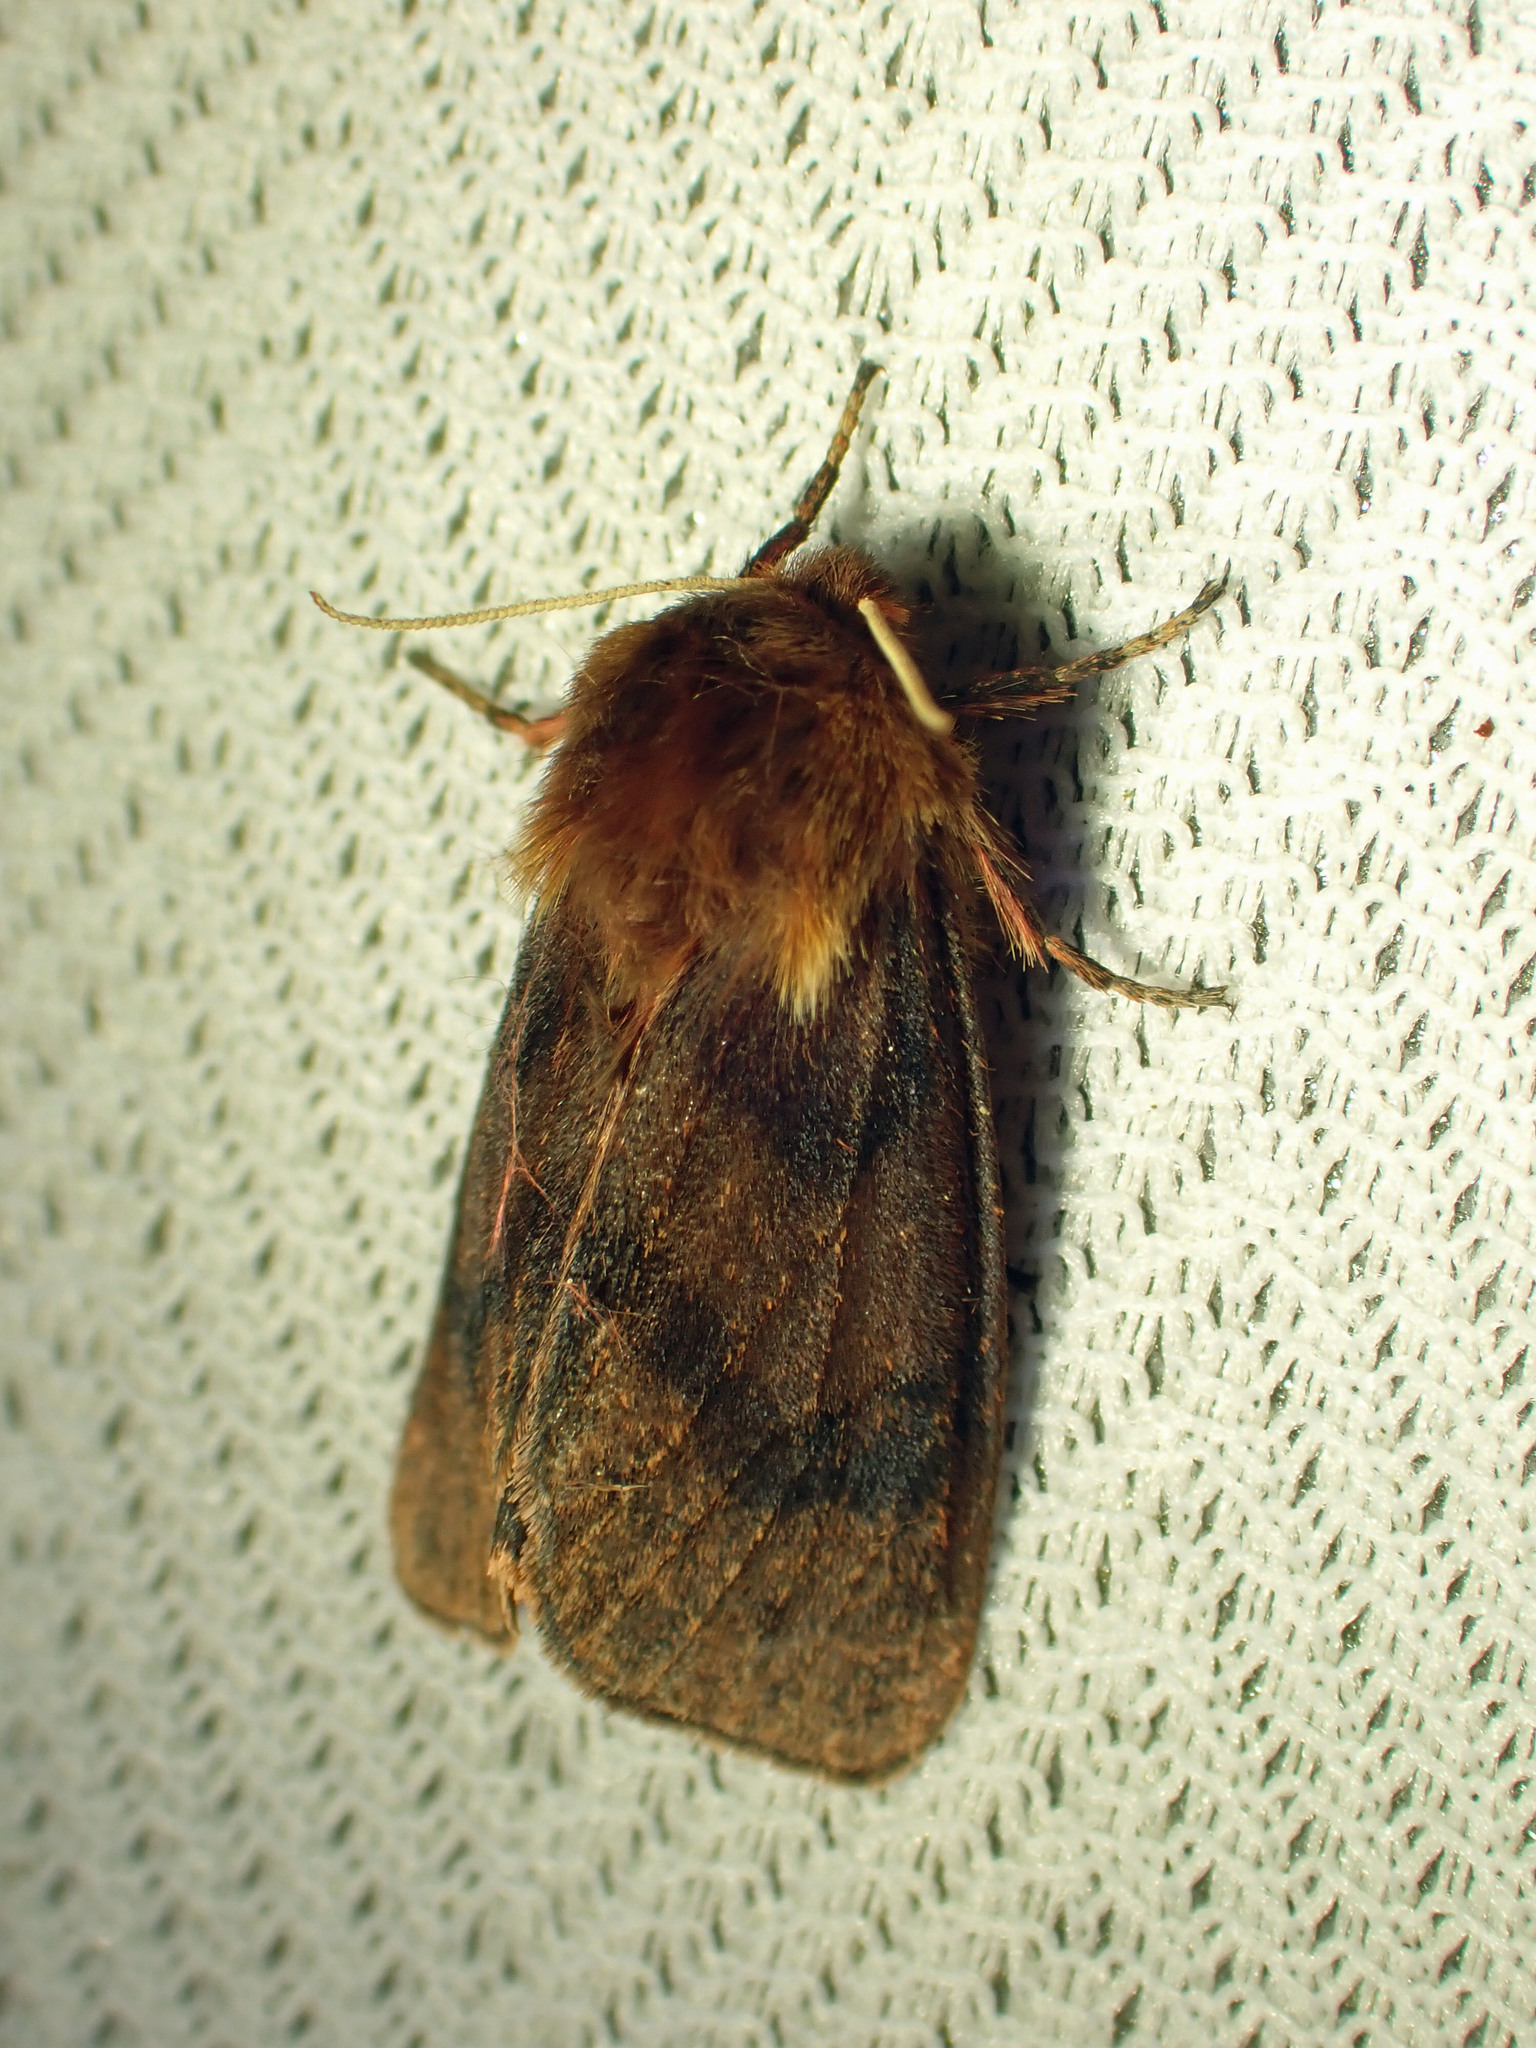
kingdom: Animalia
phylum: Arthropoda
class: Insecta
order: Lepidoptera
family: Erebidae
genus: Phragmatobia
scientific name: Phragmatobia assimilans
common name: Large ruby tiger moth
